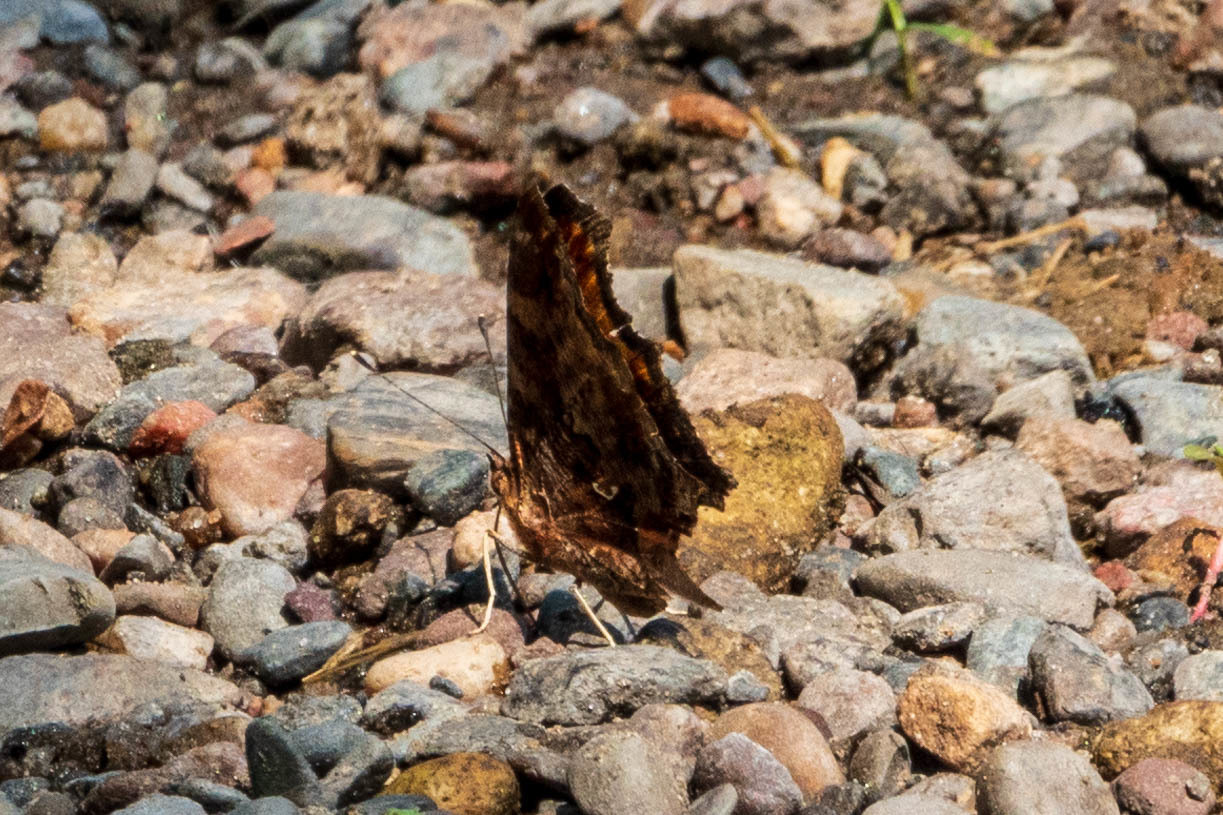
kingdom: Animalia
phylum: Arthropoda
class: Insecta
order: Lepidoptera
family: Nymphalidae
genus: Polygonia
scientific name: Polygonia comma
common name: Eastern comma
